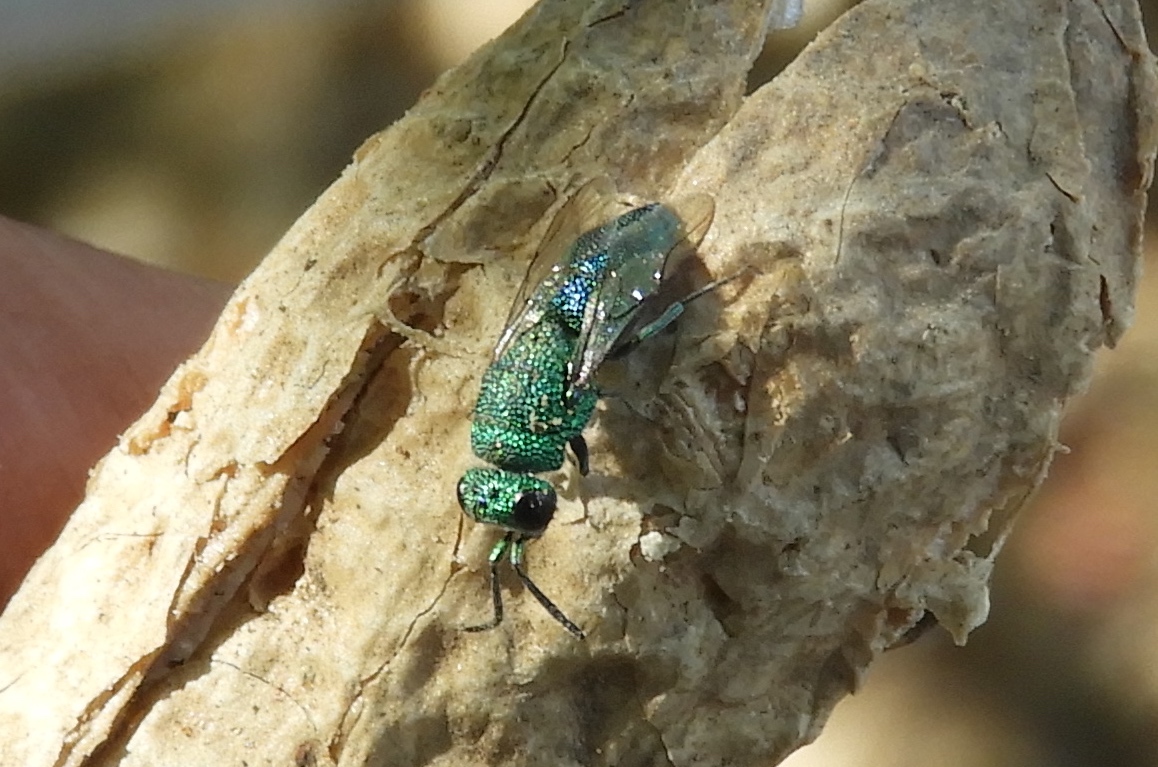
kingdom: Animalia
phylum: Arthropoda
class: Insecta
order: Hymenoptera
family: Chrysididae
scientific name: Chrysididae
